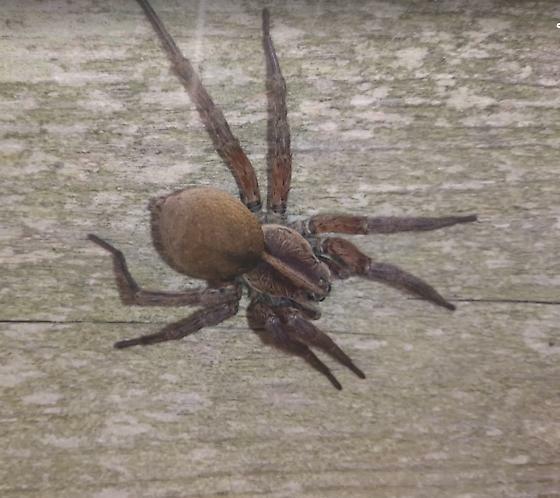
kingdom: Animalia
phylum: Arthropoda
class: Arachnida
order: Araneae
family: Lycosidae
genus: Hogna
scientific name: Hogna osceola
